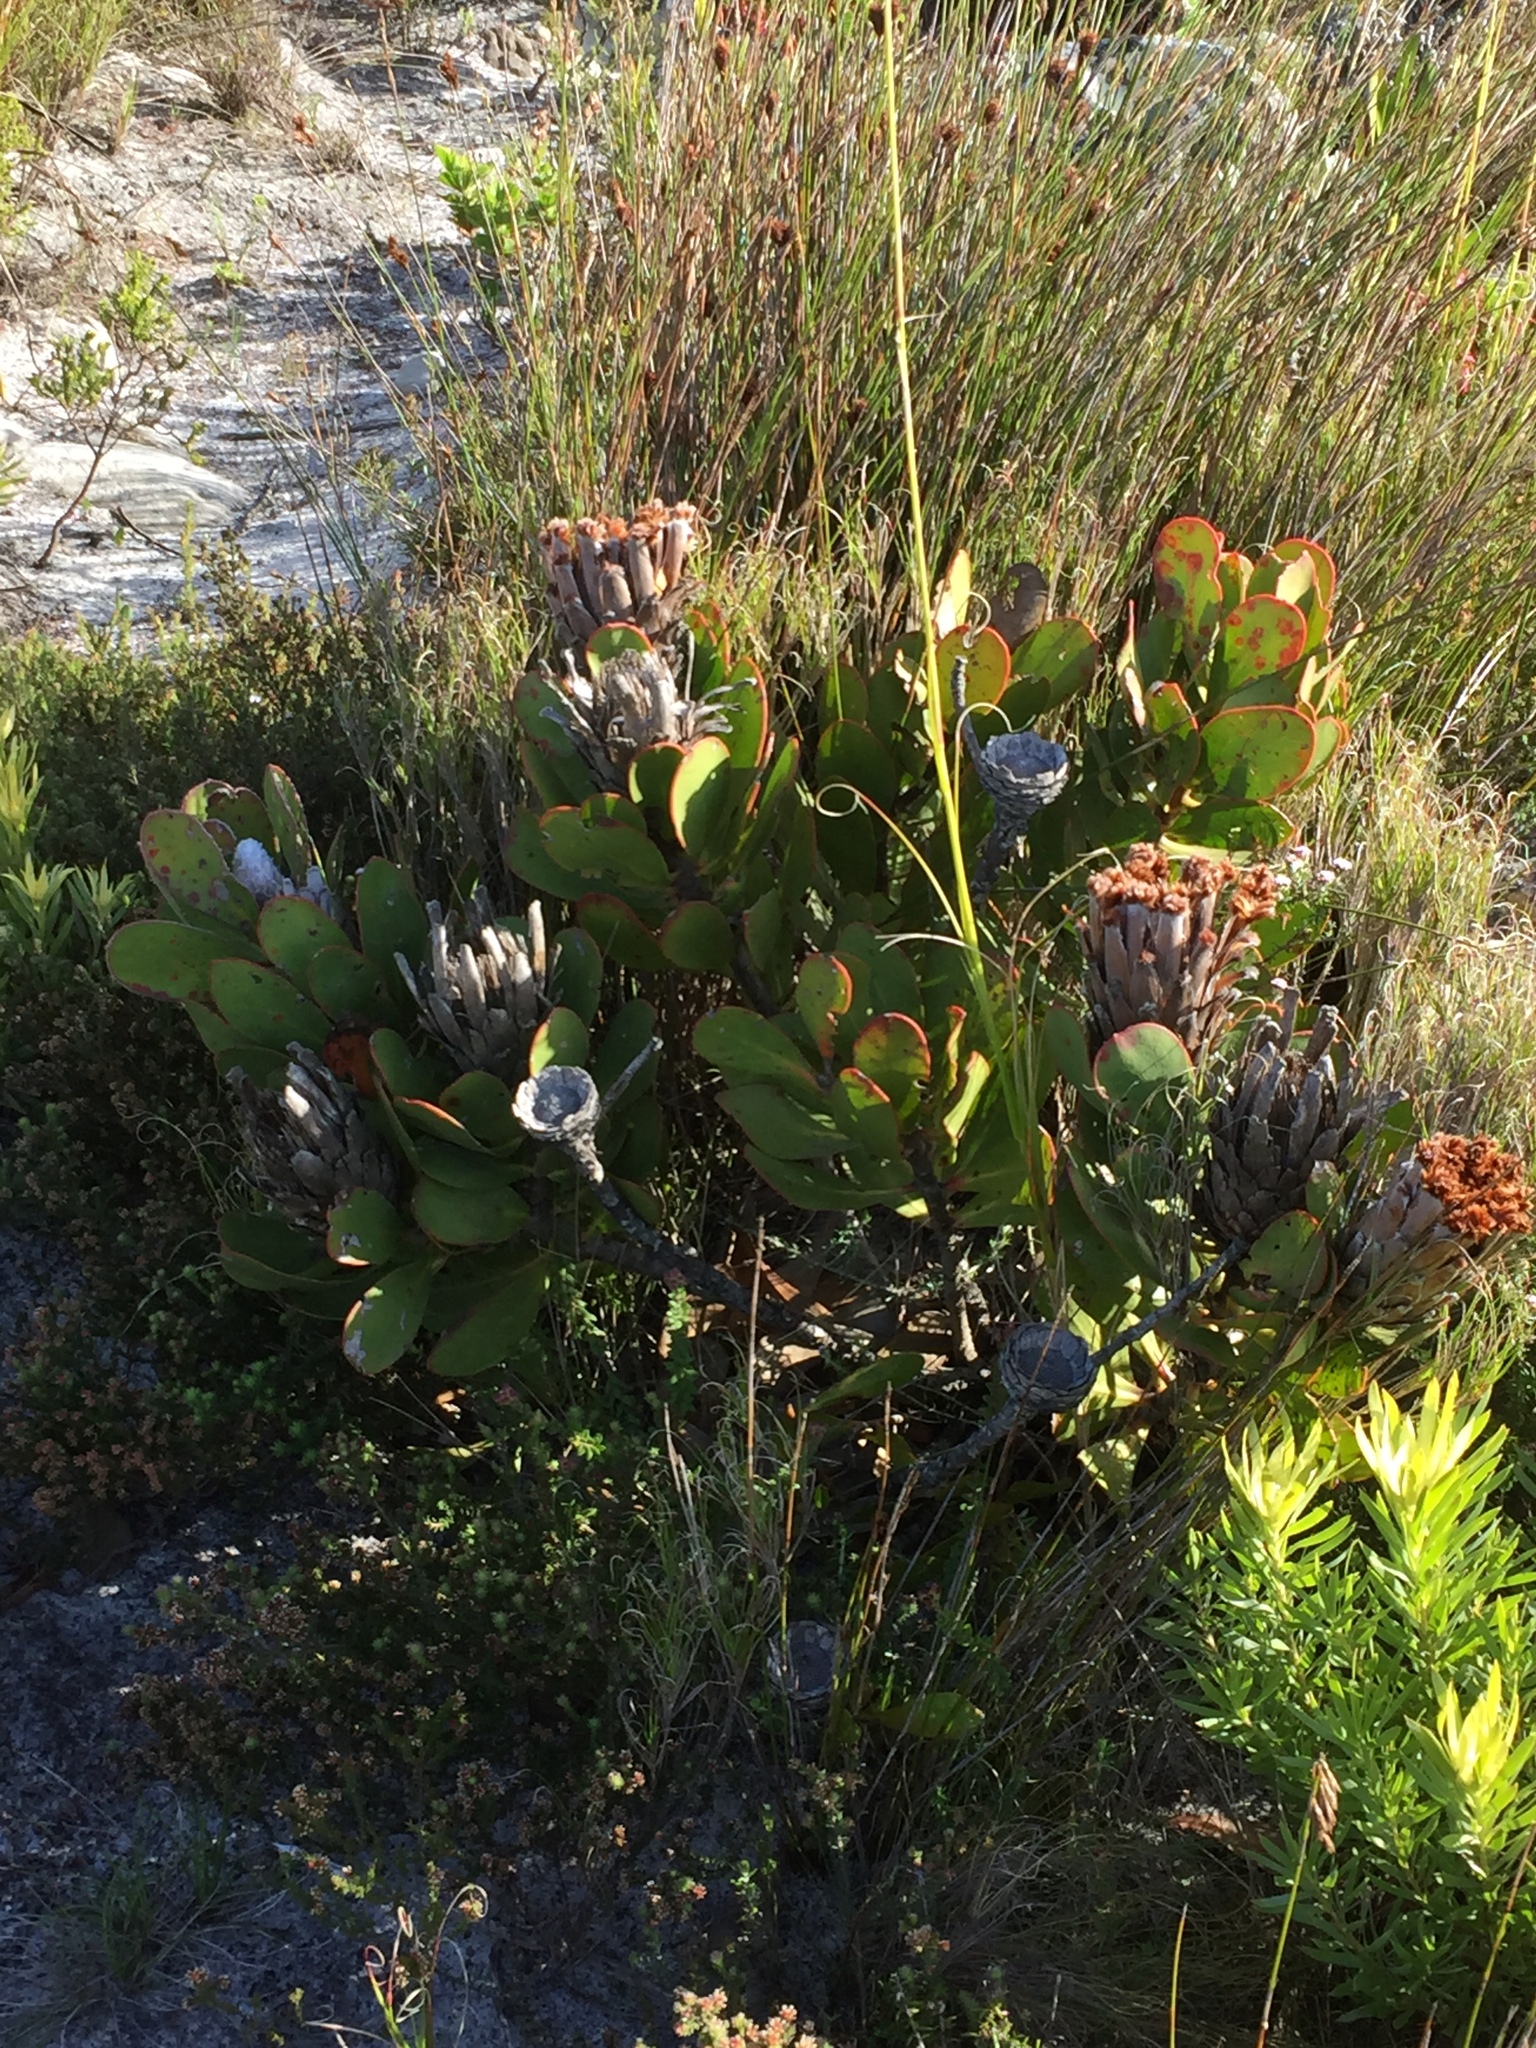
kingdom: Plantae
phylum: Tracheophyta
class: Magnoliopsida
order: Proteales
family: Proteaceae
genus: Protea
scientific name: Protea speciosa
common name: Brown-beard sugarbush
